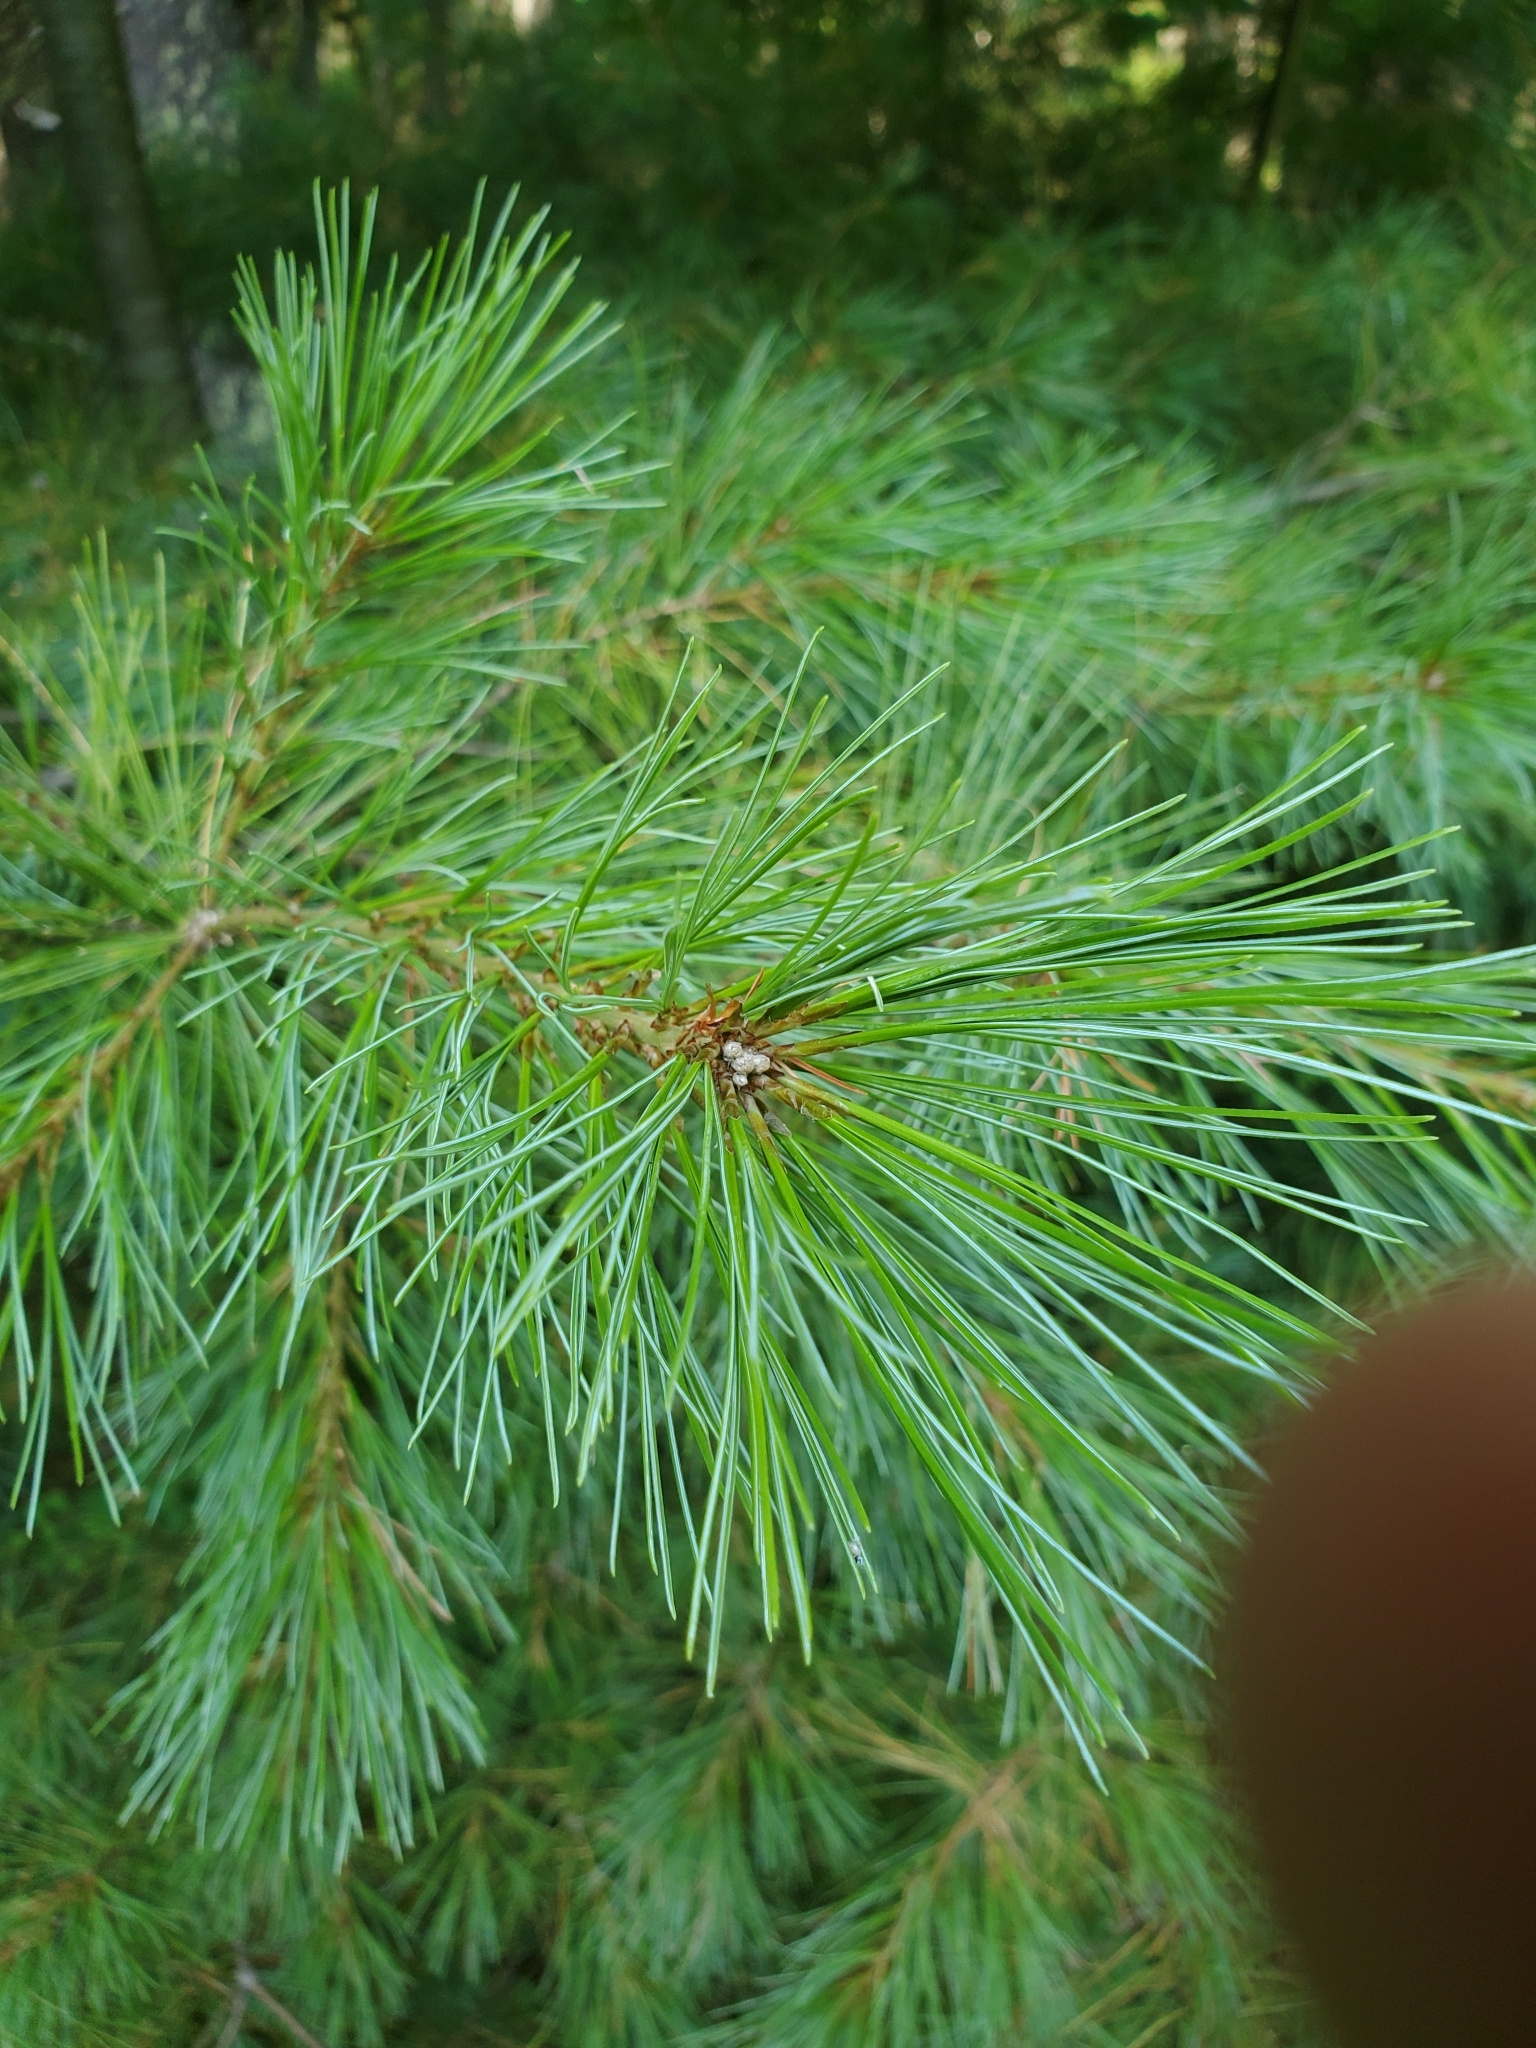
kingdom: Plantae
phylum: Tracheophyta
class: Pinopsida
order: Pinales
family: Pinaceae
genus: Pinus
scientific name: Pinus strobus
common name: Weymouth pine
